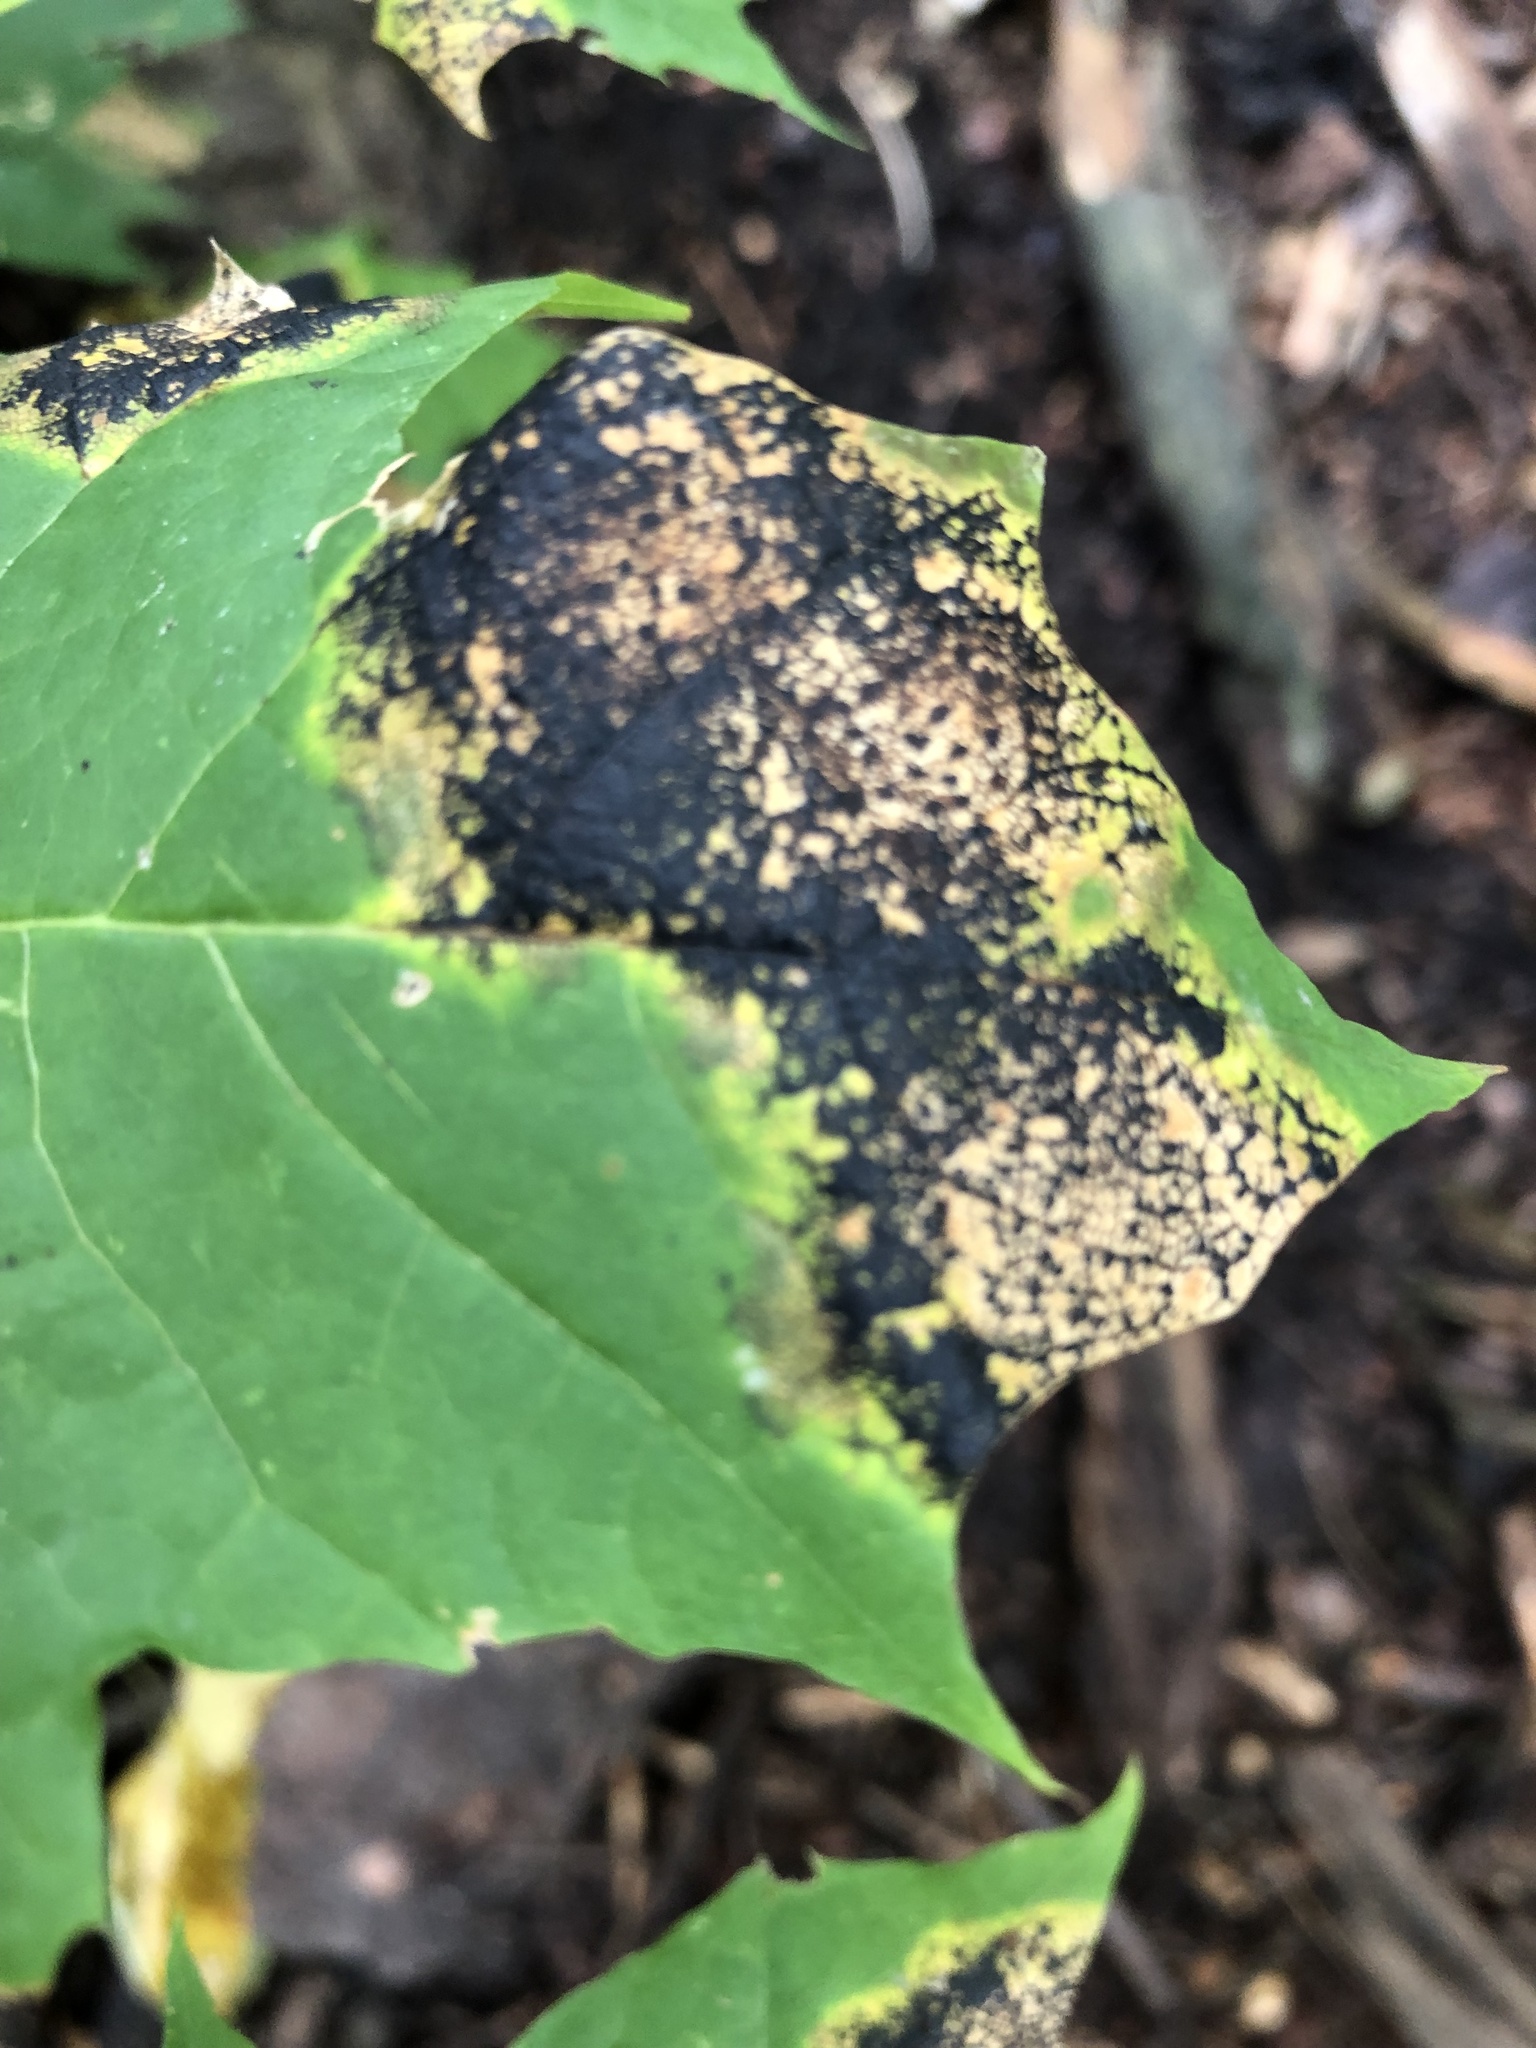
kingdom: Fungi
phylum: Ascomycota
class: Leotiomycetes
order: Rhytismatales
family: Rhytismataceae
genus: Rhytisma
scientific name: Rhytisma acerinum
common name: European tar spot
